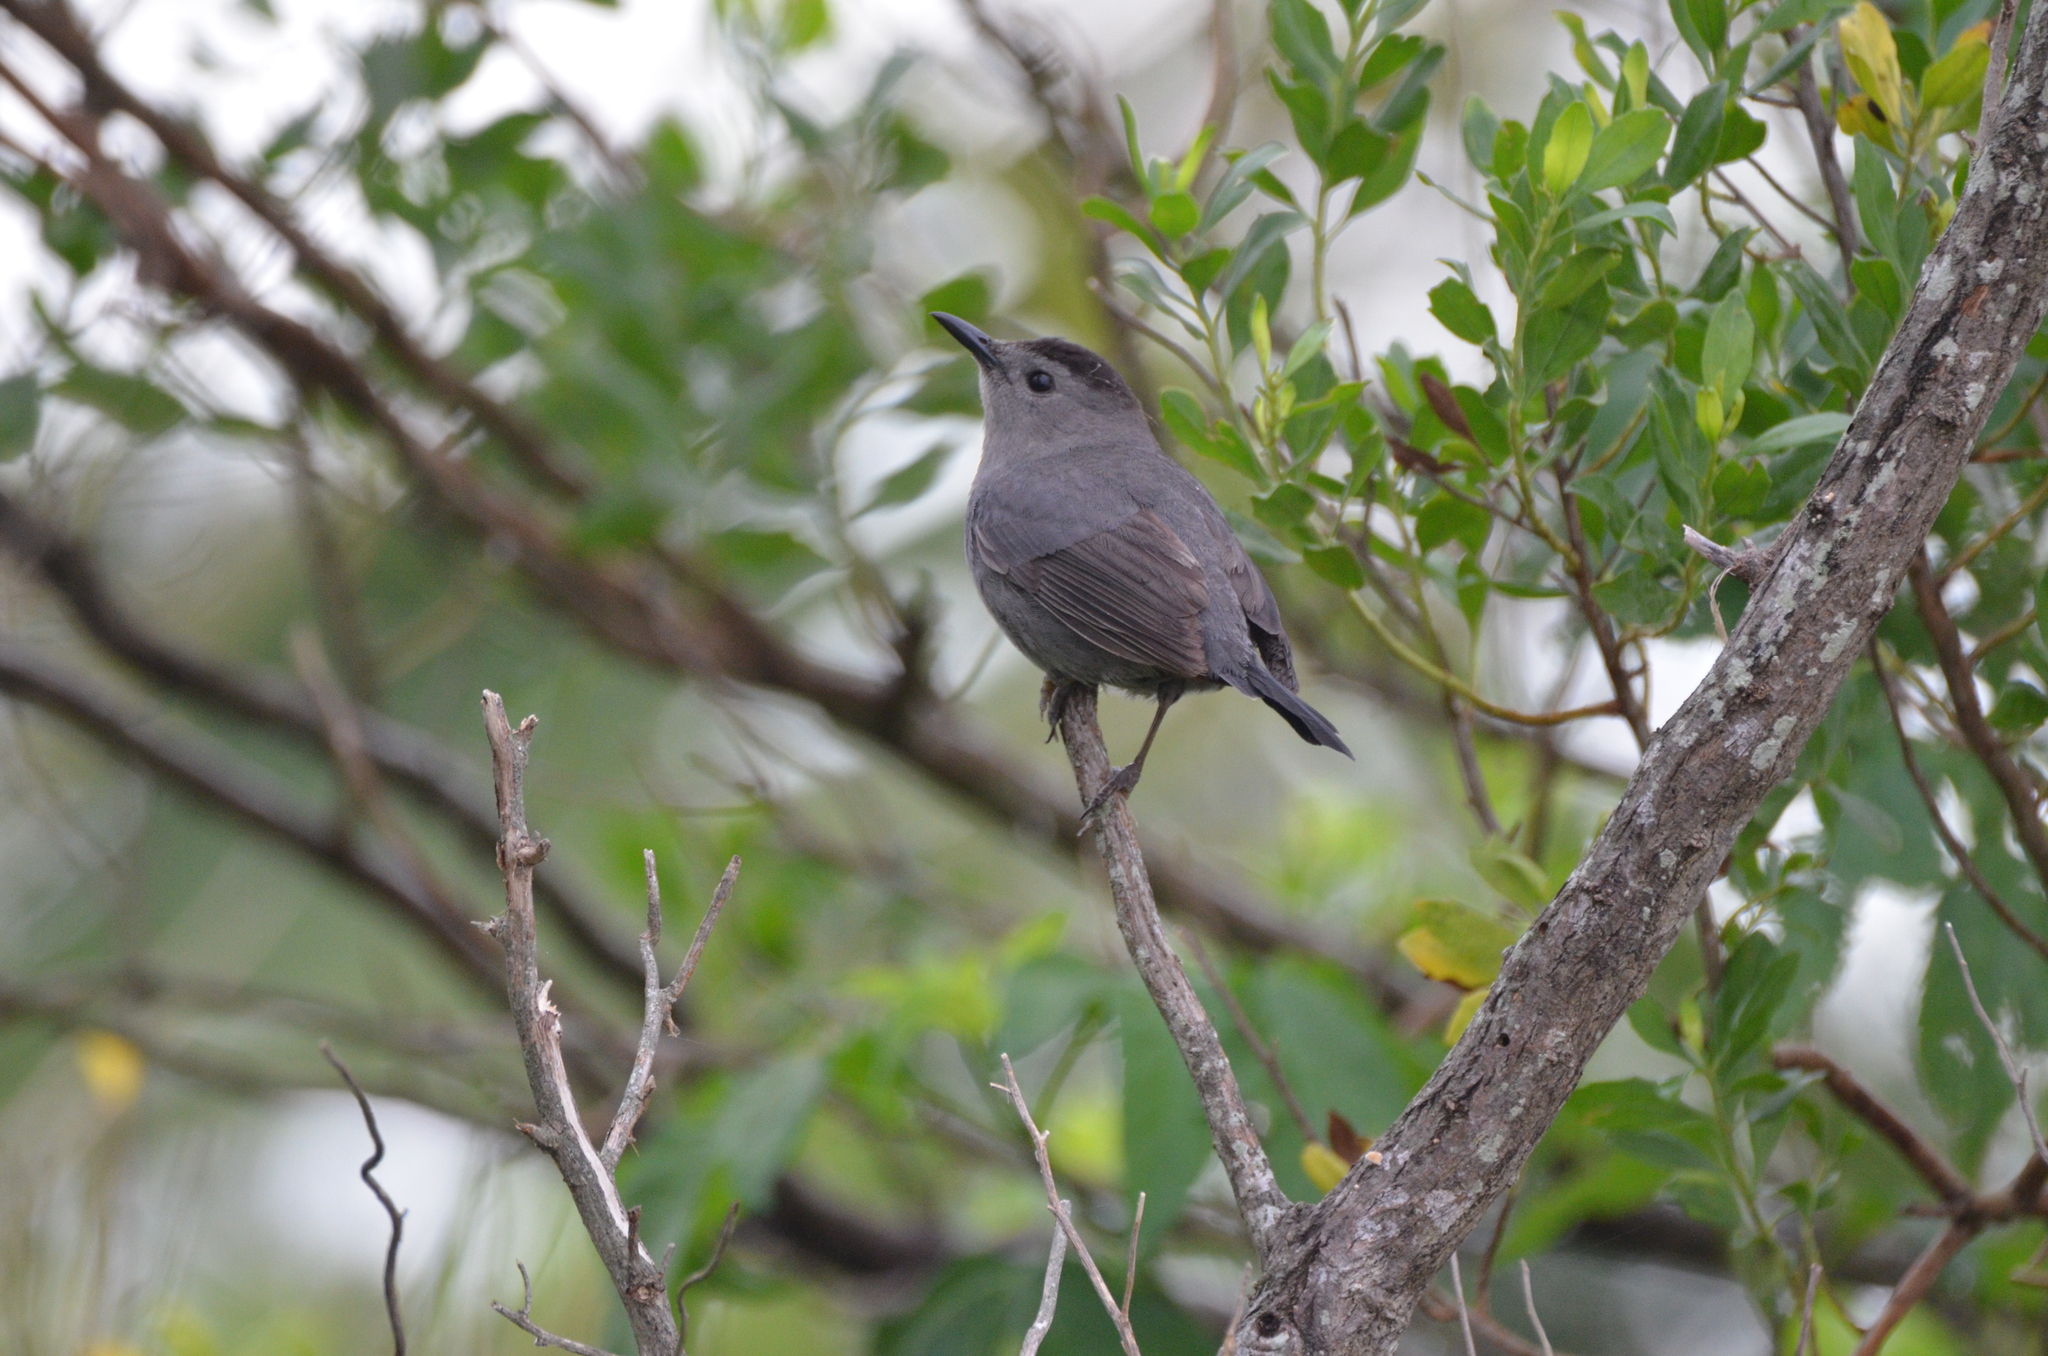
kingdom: Animalia
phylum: Chordata
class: Aves
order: Passeriformes
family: Mimidae
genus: Dumetella
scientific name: Dumetella carolinensis
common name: Gray catbird
